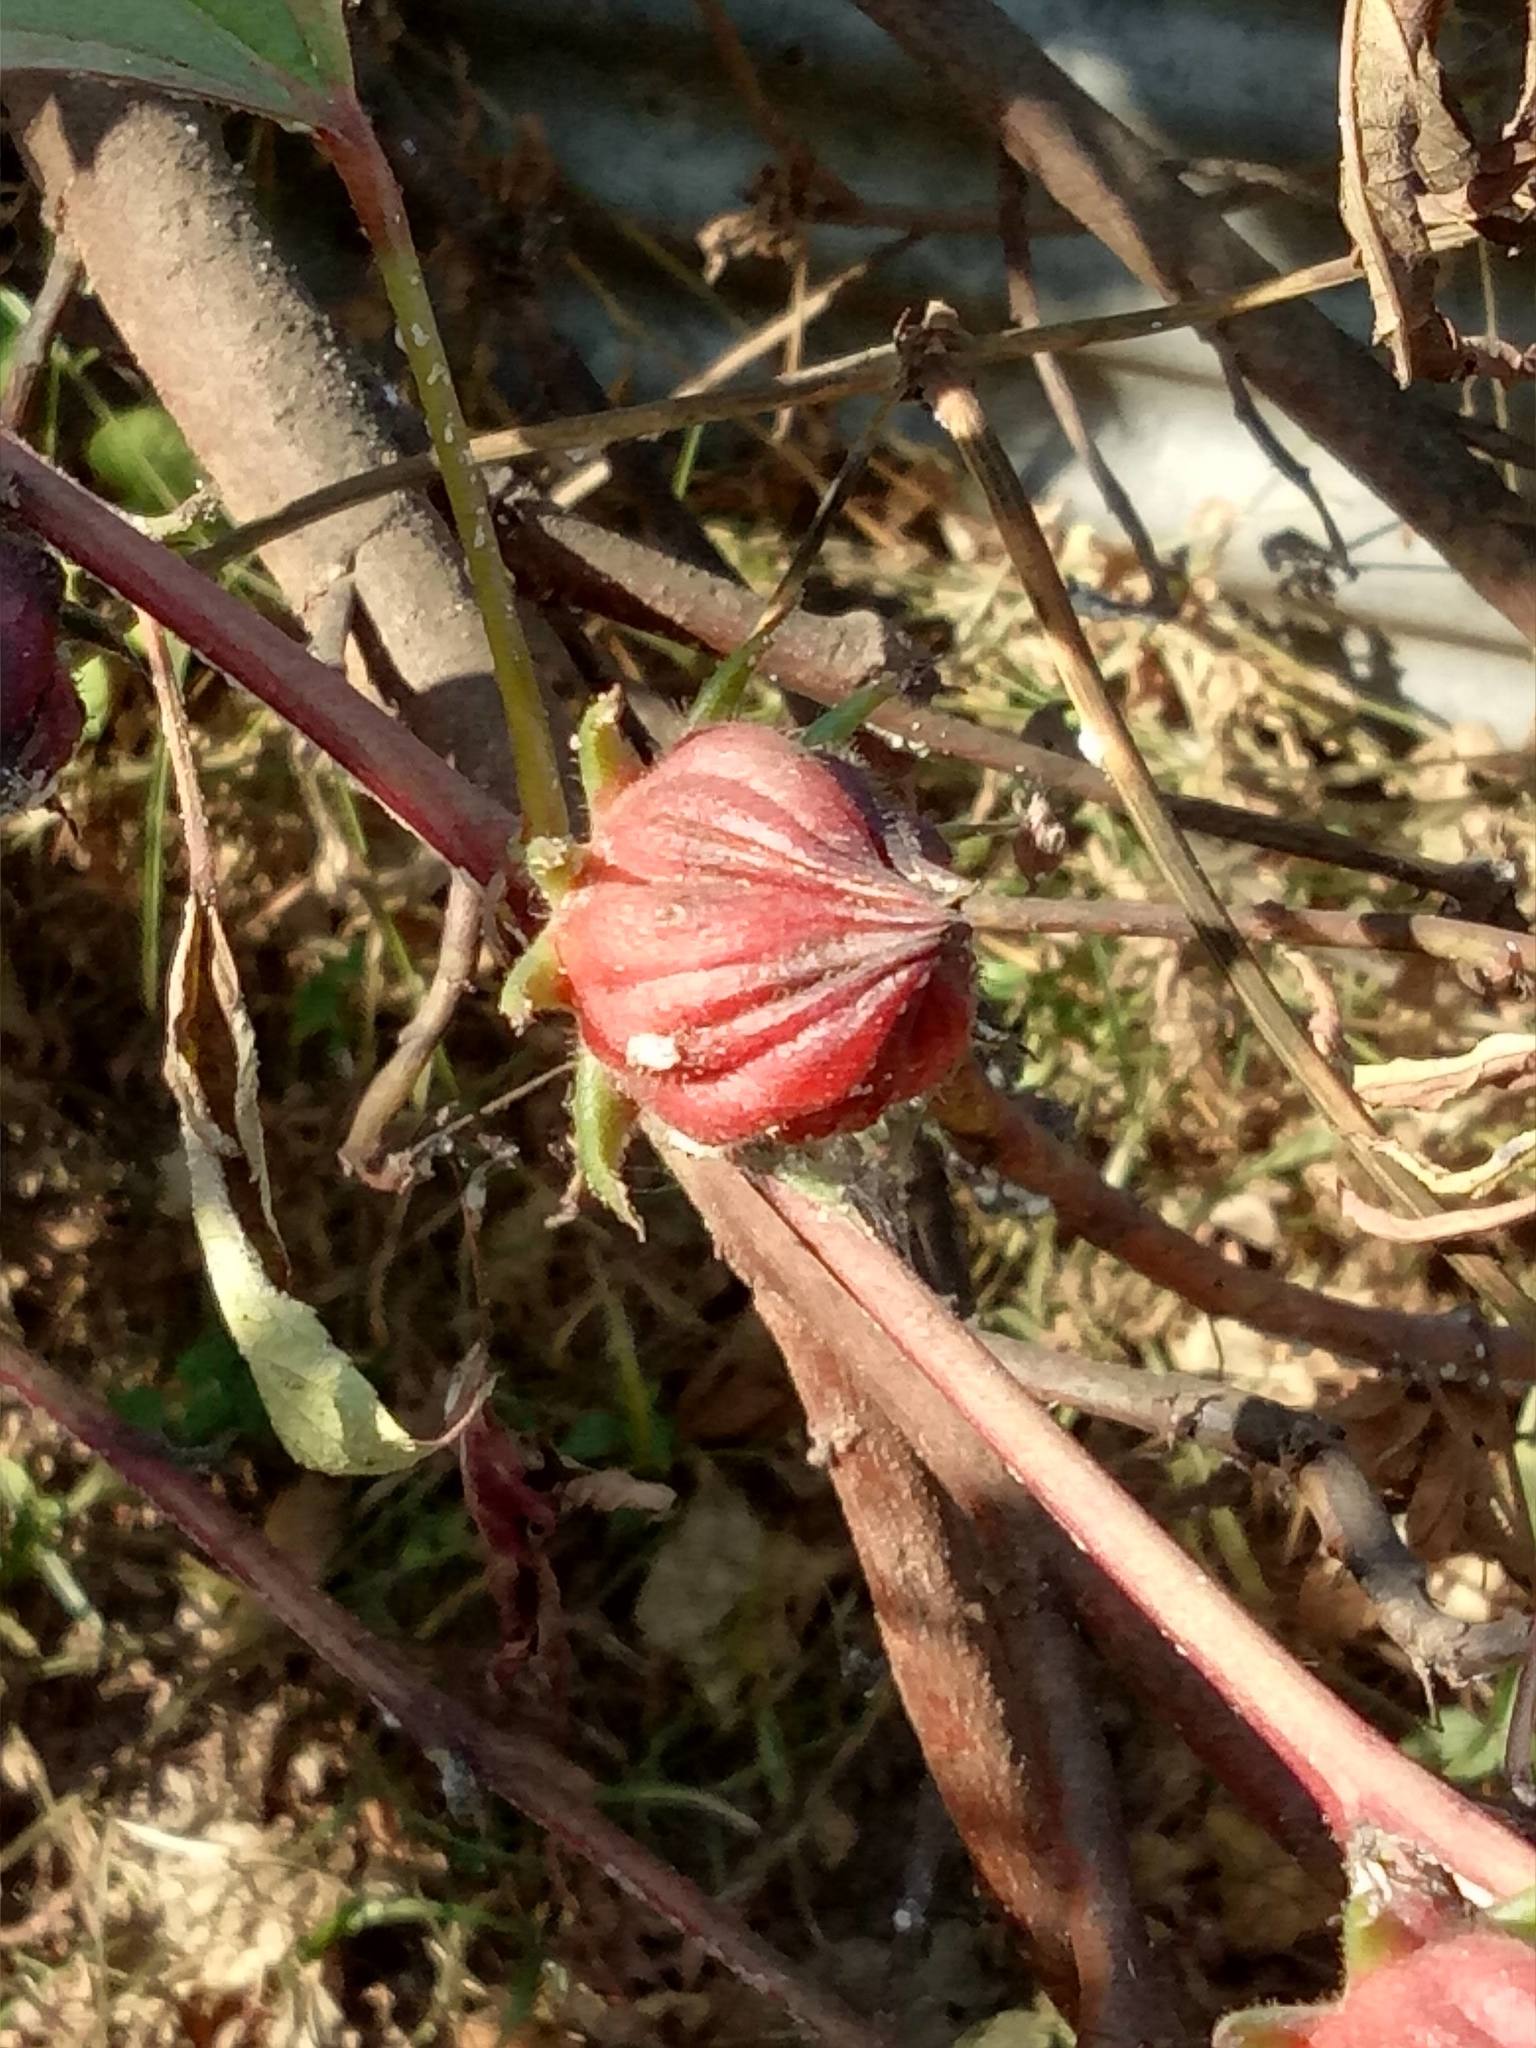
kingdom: Plantae
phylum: Tracheophyta
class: Magnoliopsida
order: Malvales
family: Malvaceae
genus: Hibiscus
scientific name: Hibiscus sabdariffa
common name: Roselle
